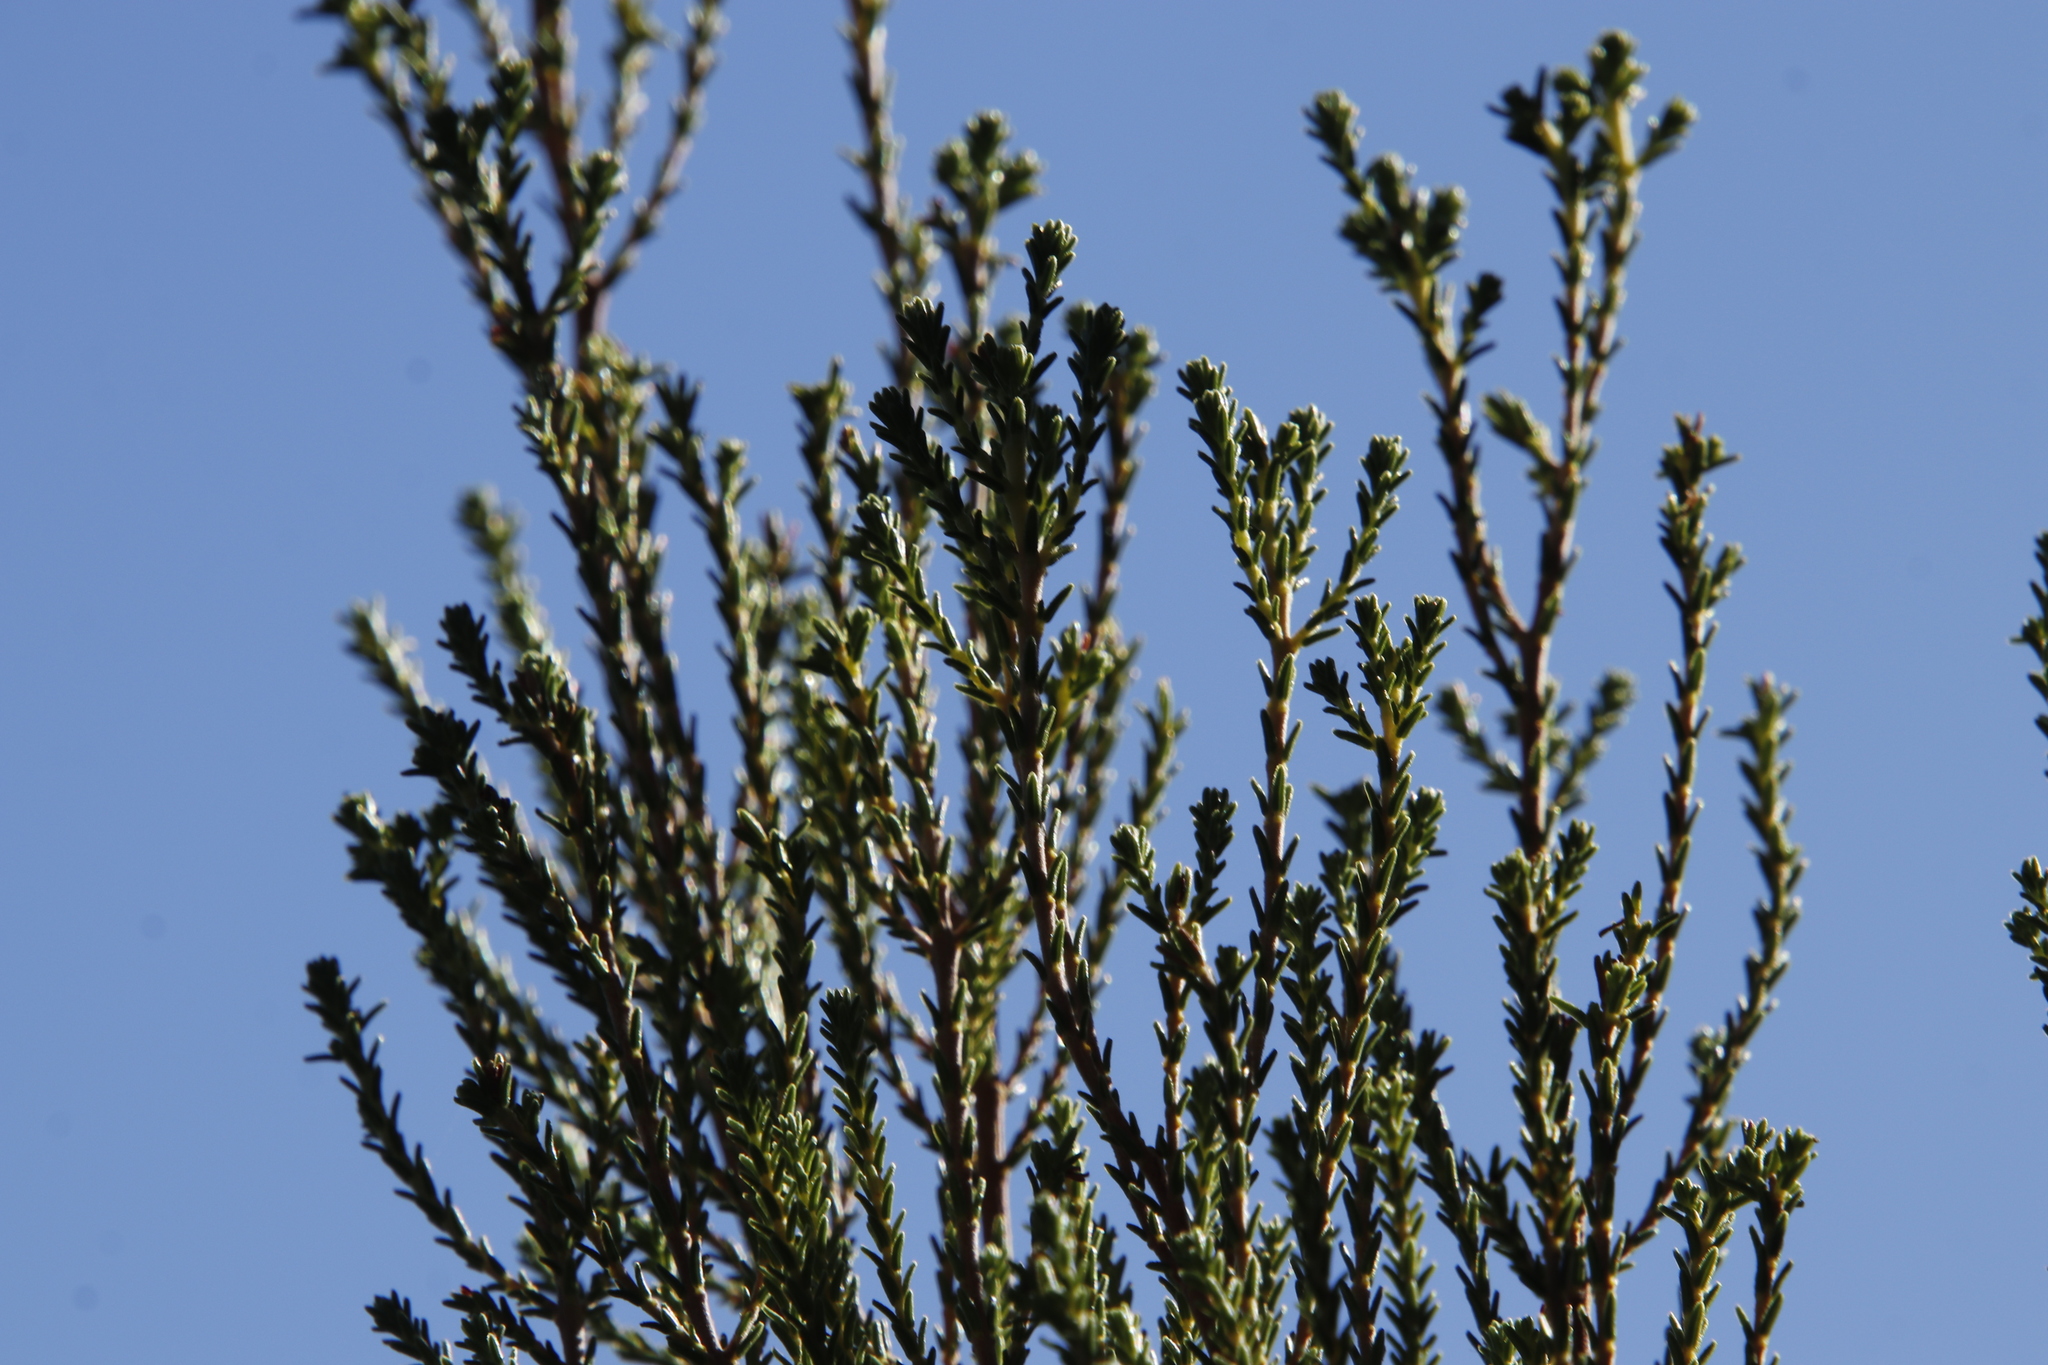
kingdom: Plantae
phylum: Tracheophyta
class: Magnoliopsida
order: Ericales
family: Ericaceae
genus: Erica
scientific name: Erica tristis
